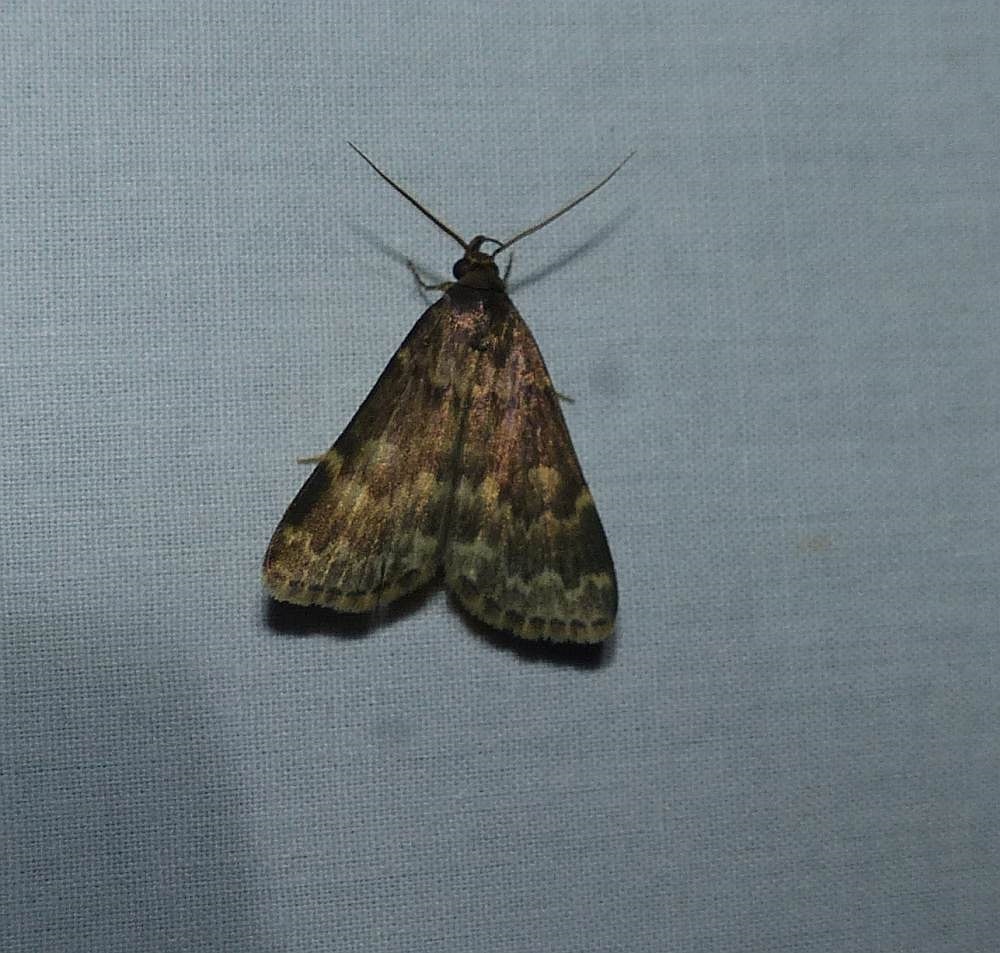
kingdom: Animalia
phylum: Arthropoda
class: Insecta
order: Lepidoptera
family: Erebidae
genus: Idia
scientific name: Idia lubricalis
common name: Twin-striped tabby
